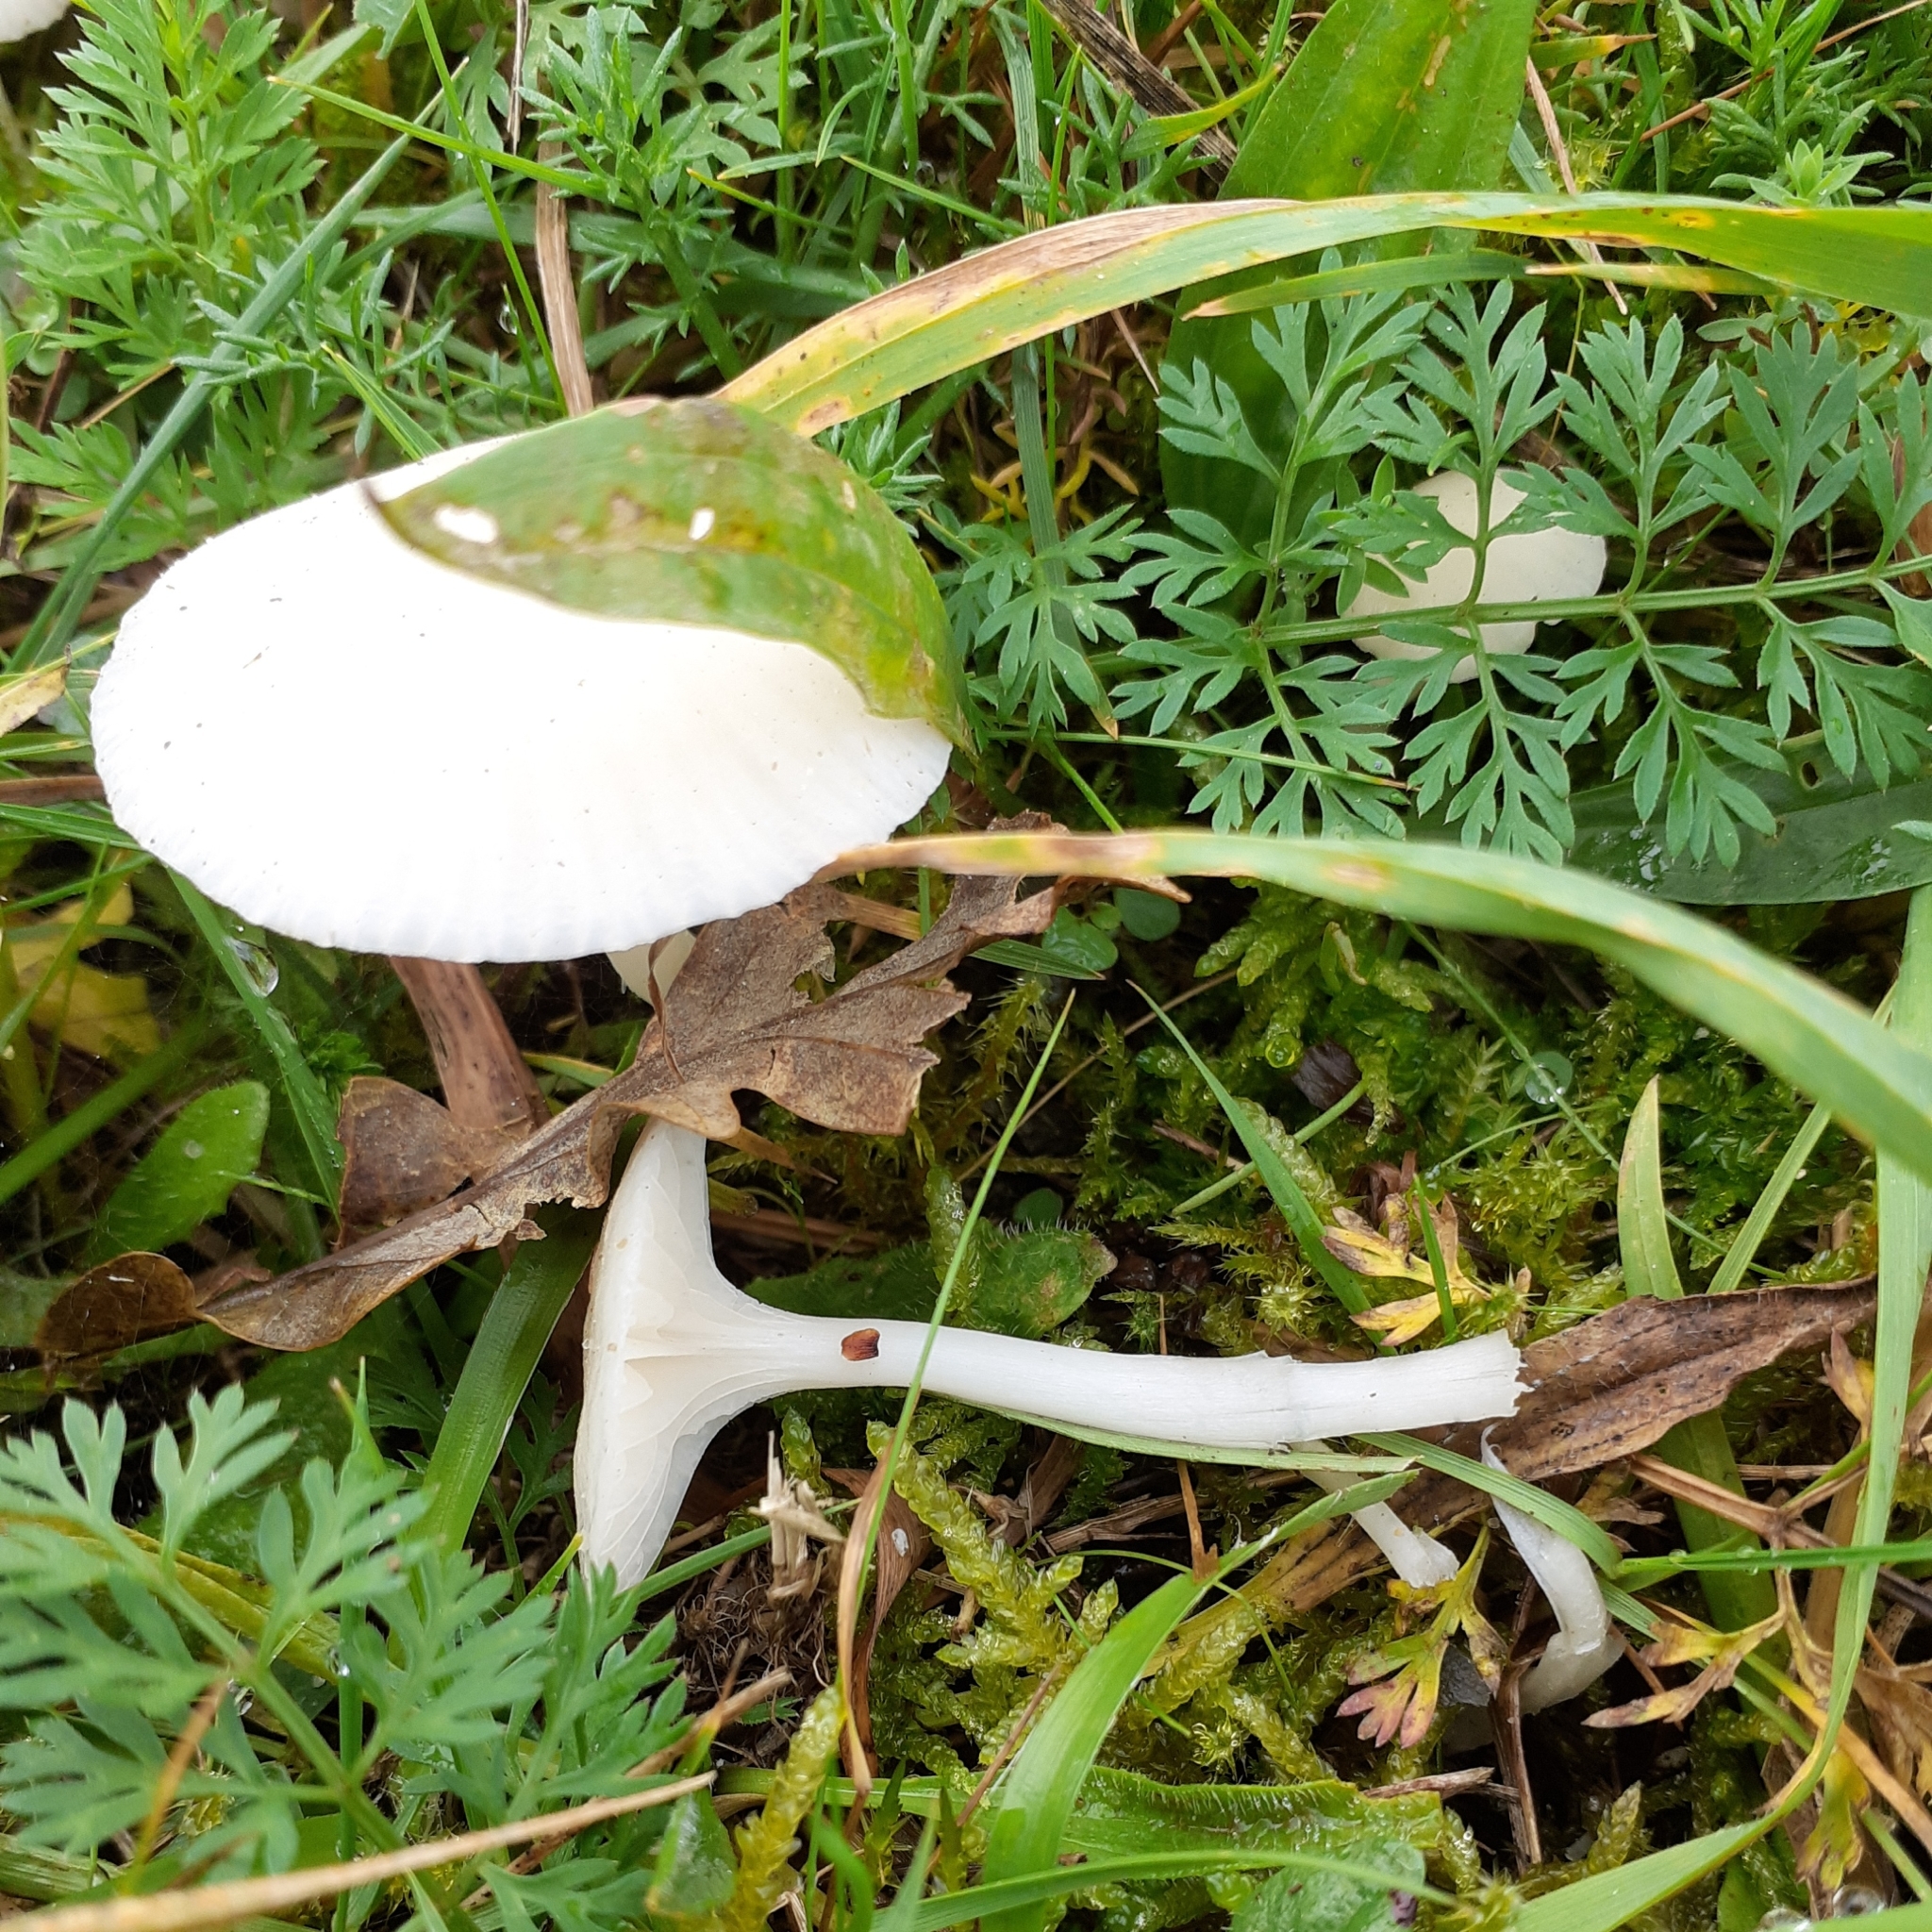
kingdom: Fungi
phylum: Basidiomycota
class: Agaricomycetes
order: Agaricales
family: Hygrophoraceae
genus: Cuphophyllus
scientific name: Cuphophyllus virgineus
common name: Snowy waxcap
